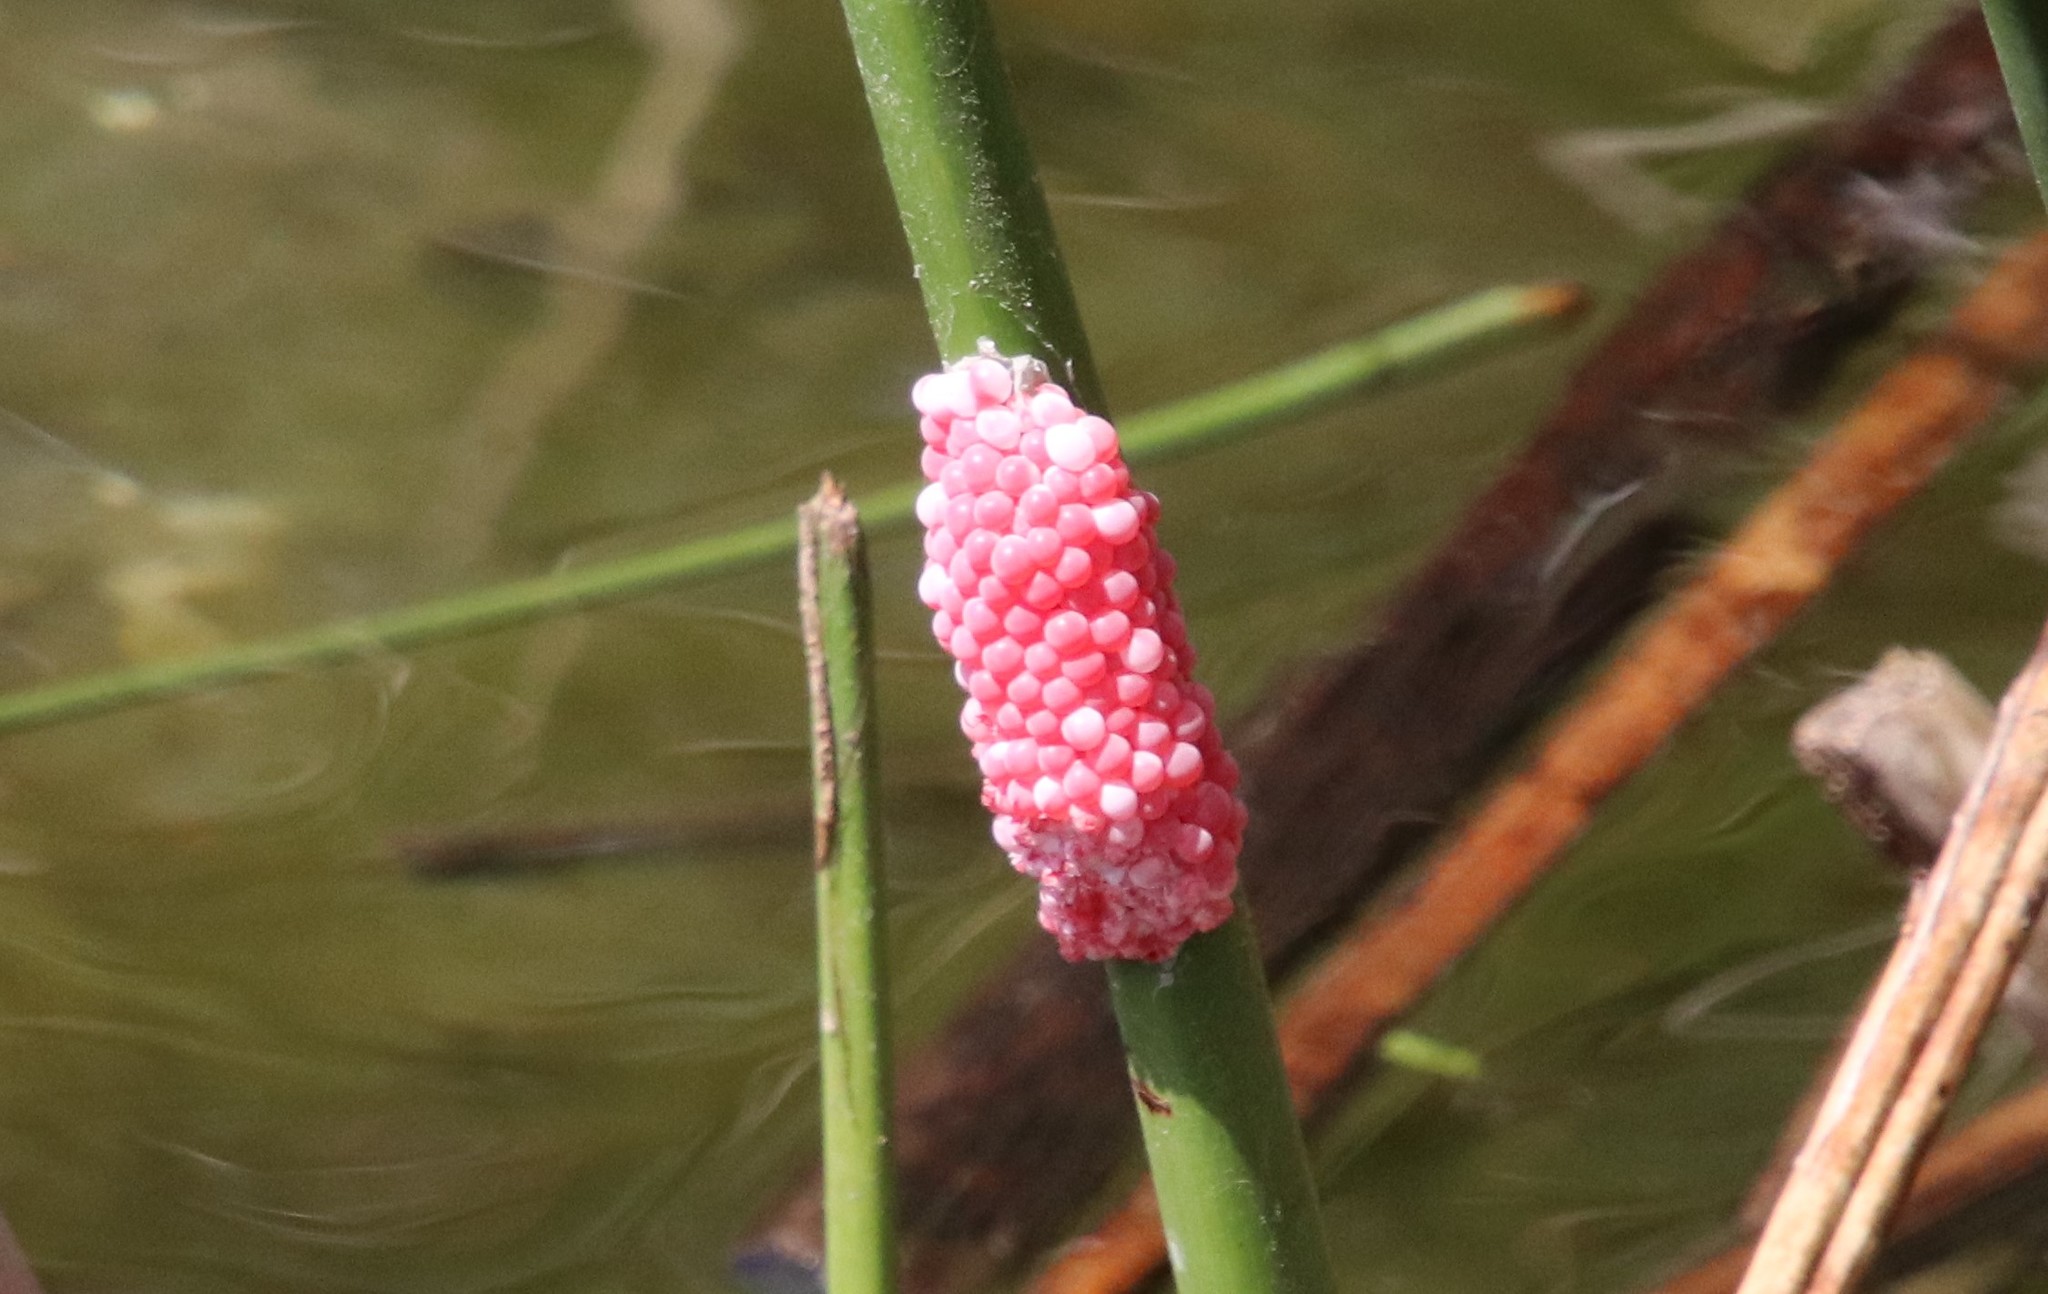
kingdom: Animalia
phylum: Mollusca
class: Gastropoda
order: Architaenioglossa
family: Ampullariidae
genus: Pomacea
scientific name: Pomacea canaliculata
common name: Channeled applesnail
